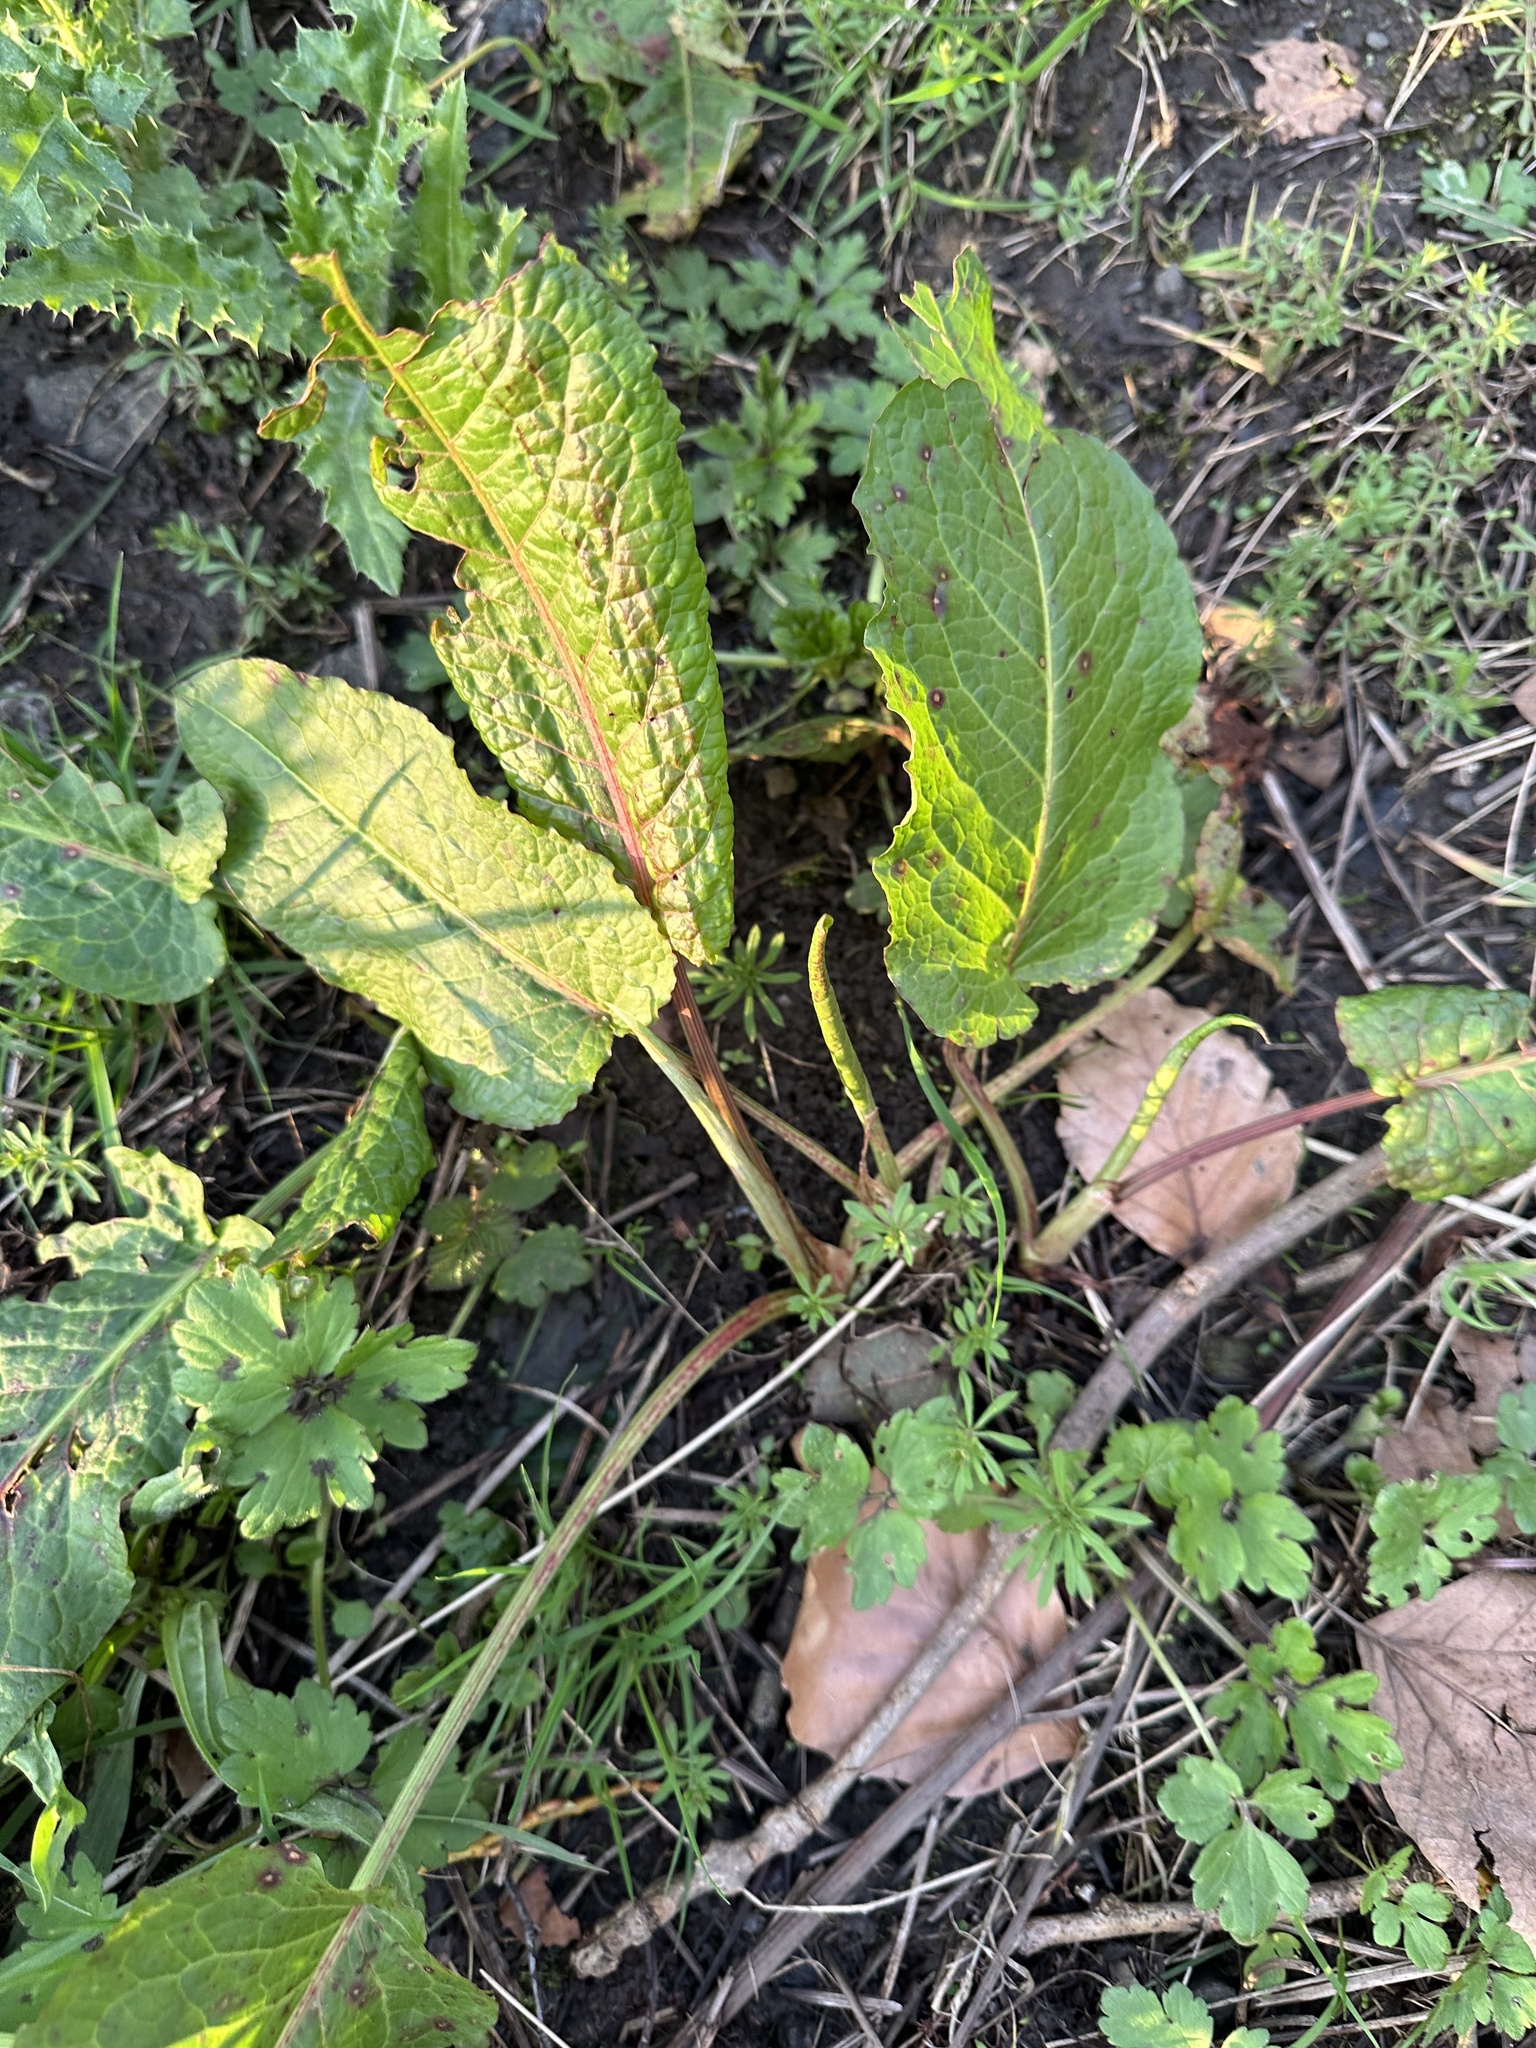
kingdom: Plantae
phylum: Tracheophyta
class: Magnoliopsida
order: Caryophyllales
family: Polygonaceae
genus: Rumex
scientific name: Rumex obtusifolius
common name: Bitter dock
